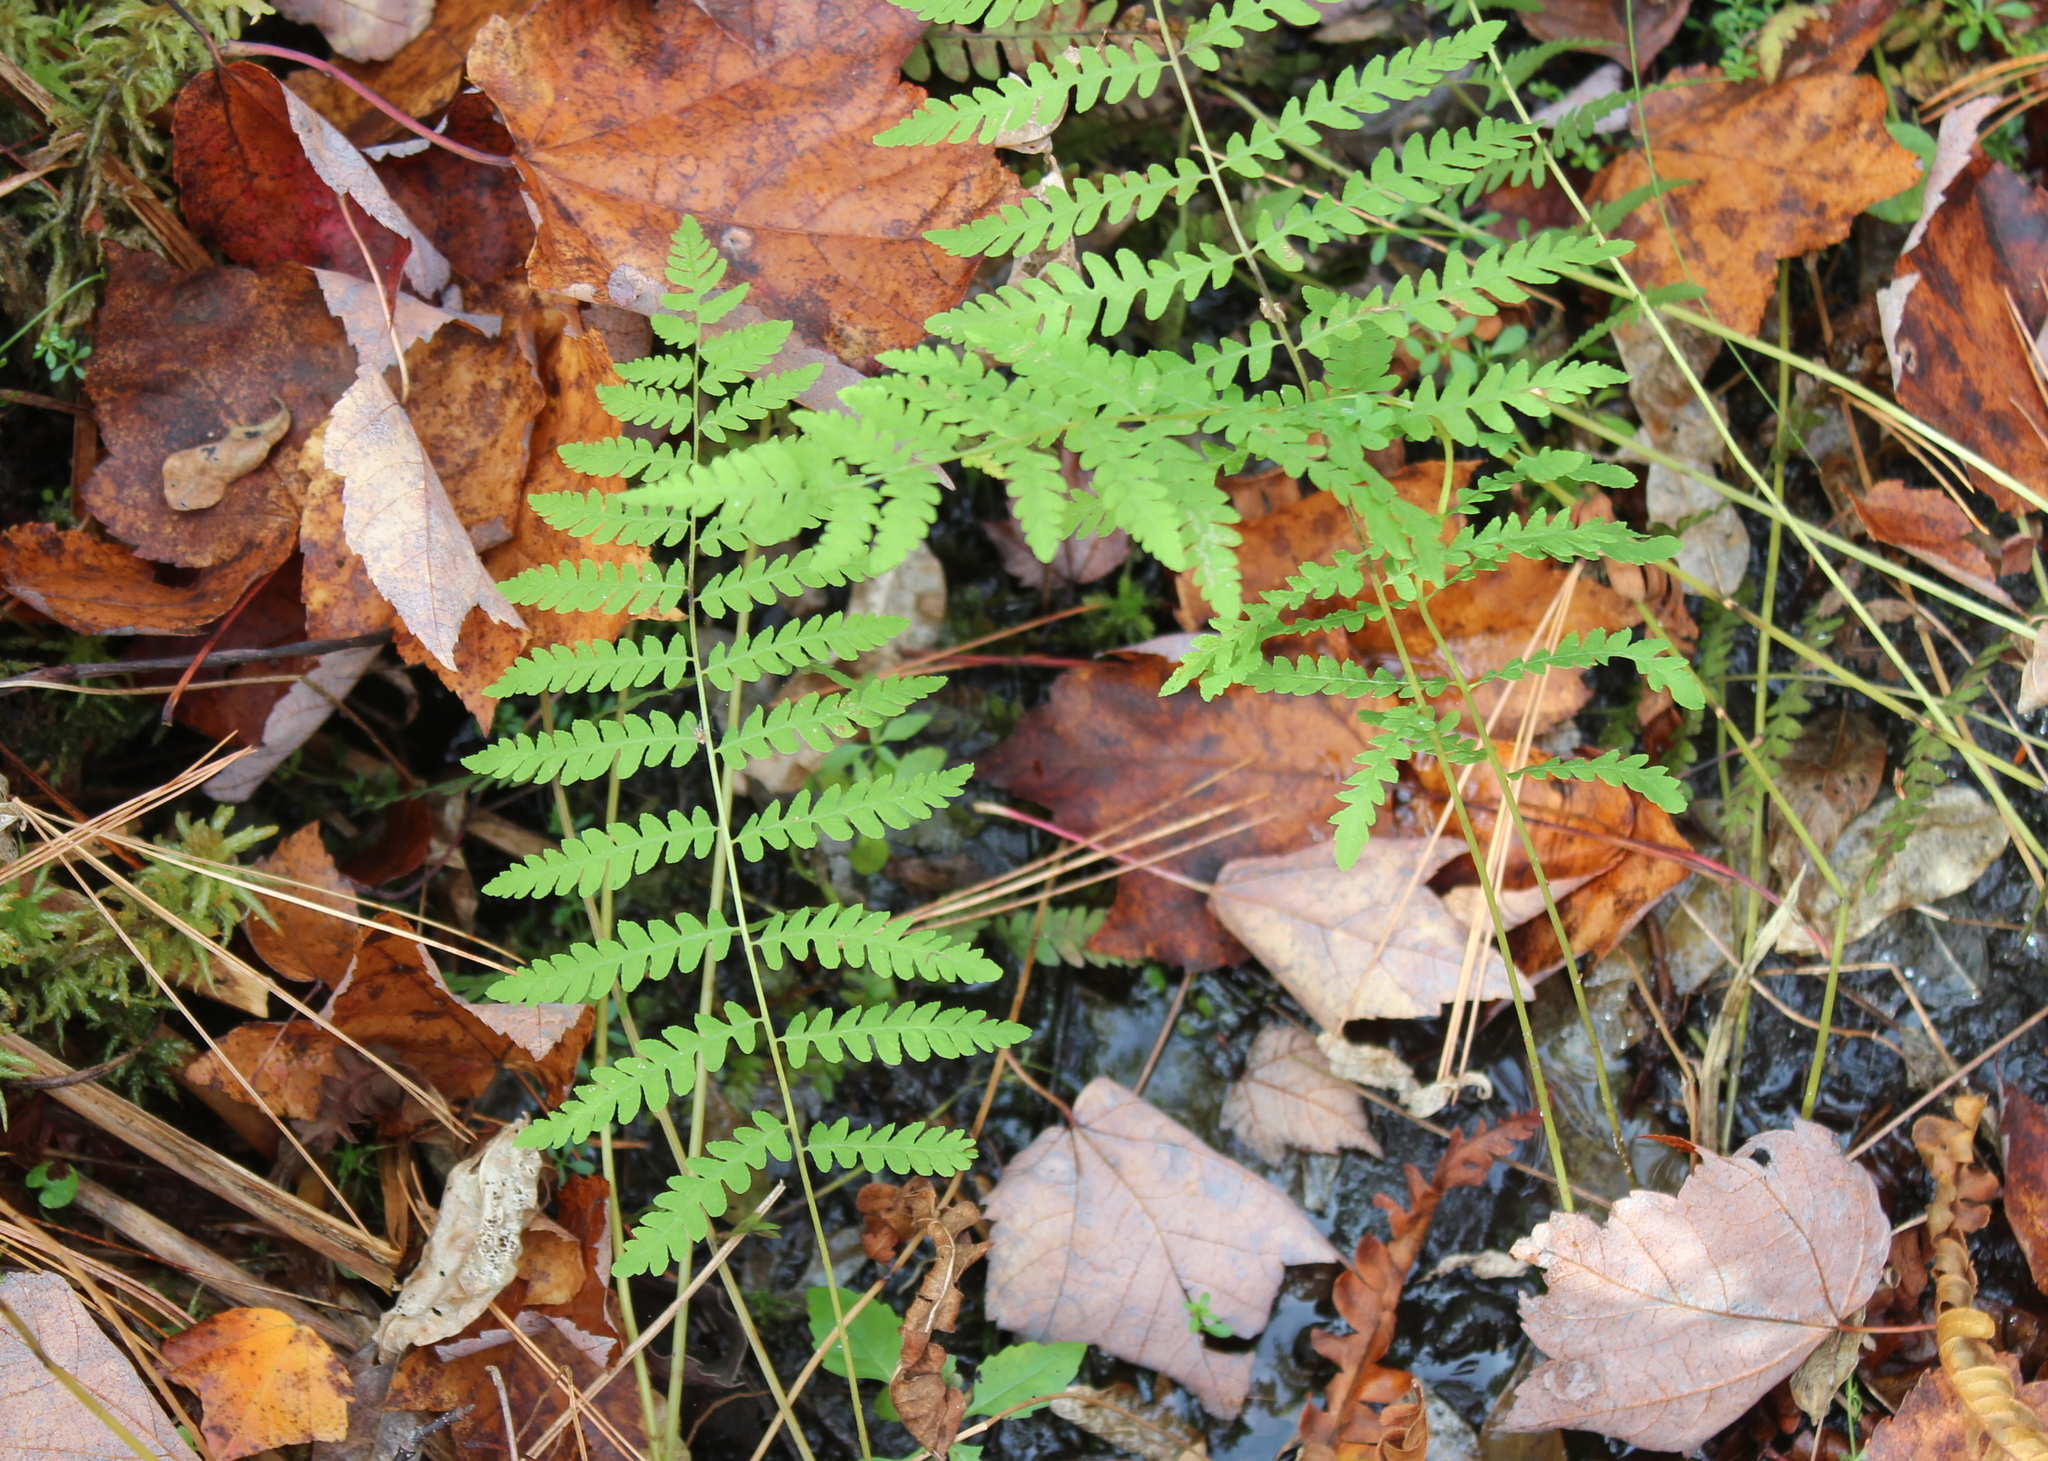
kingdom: Plantae
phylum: Tracheophyta
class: Polypodiopsida
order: Polypodiales
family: Thelypteridaceae
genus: Thelypteris
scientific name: Thelypteris palustris
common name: Marsh fern
